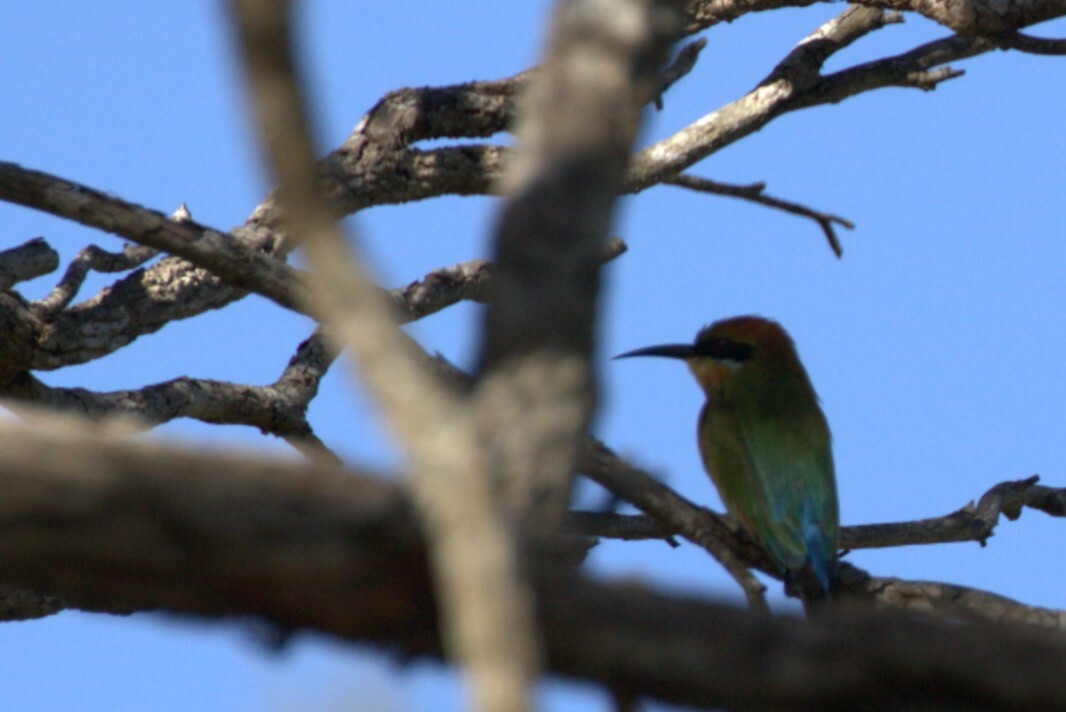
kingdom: Animalia
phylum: Chordata
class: Aves
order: Coraciiformes
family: Meropidae
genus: Merops
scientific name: Merops ornatus
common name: Rainbow bee-eater
